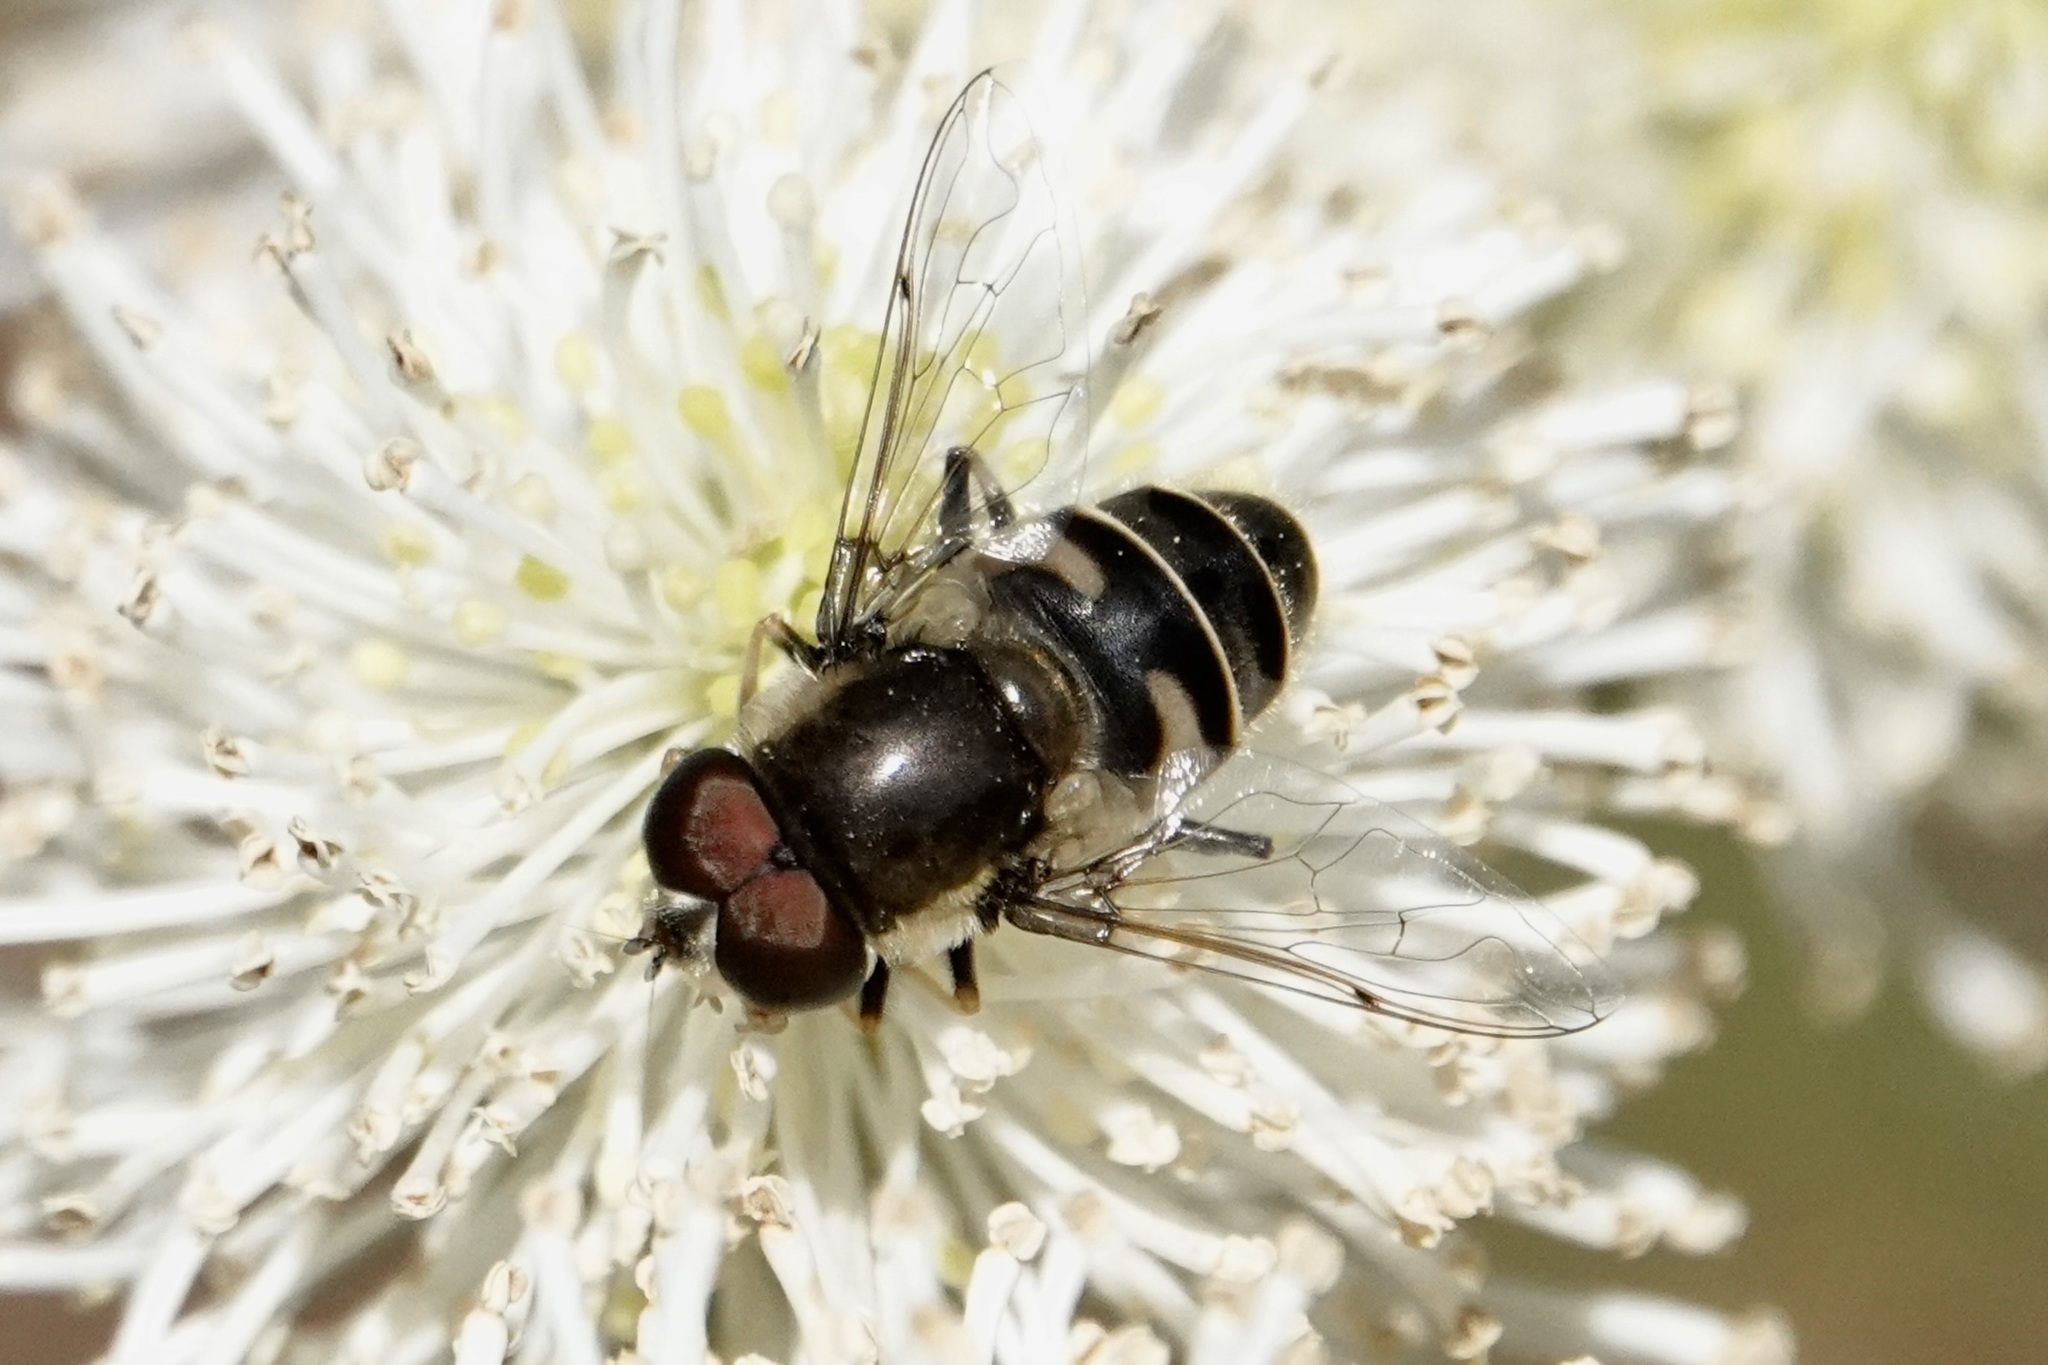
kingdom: Animalia
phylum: Arthropoda
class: Insecta
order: Diptera
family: Syrphidae
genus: Eristalis
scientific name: Eristalis dimidiata
